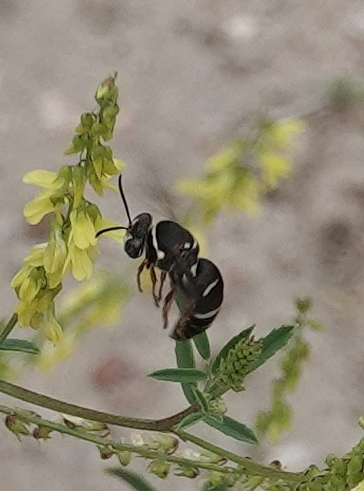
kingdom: Animalia
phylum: Arthropoda
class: Insecta
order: Hymenoptera
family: Crabronidae
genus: Bicyrtes
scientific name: Bicyrtes ventralis
